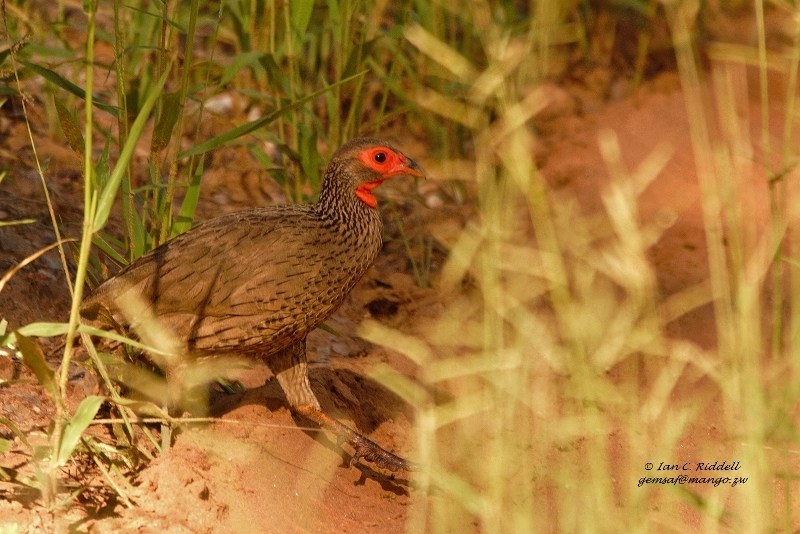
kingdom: Animalia
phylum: Chordata
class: Aves
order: Galliformes
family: Phasianidae
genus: Pternistis
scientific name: Pternistis swainsonii
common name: Swainson's spurfowl
